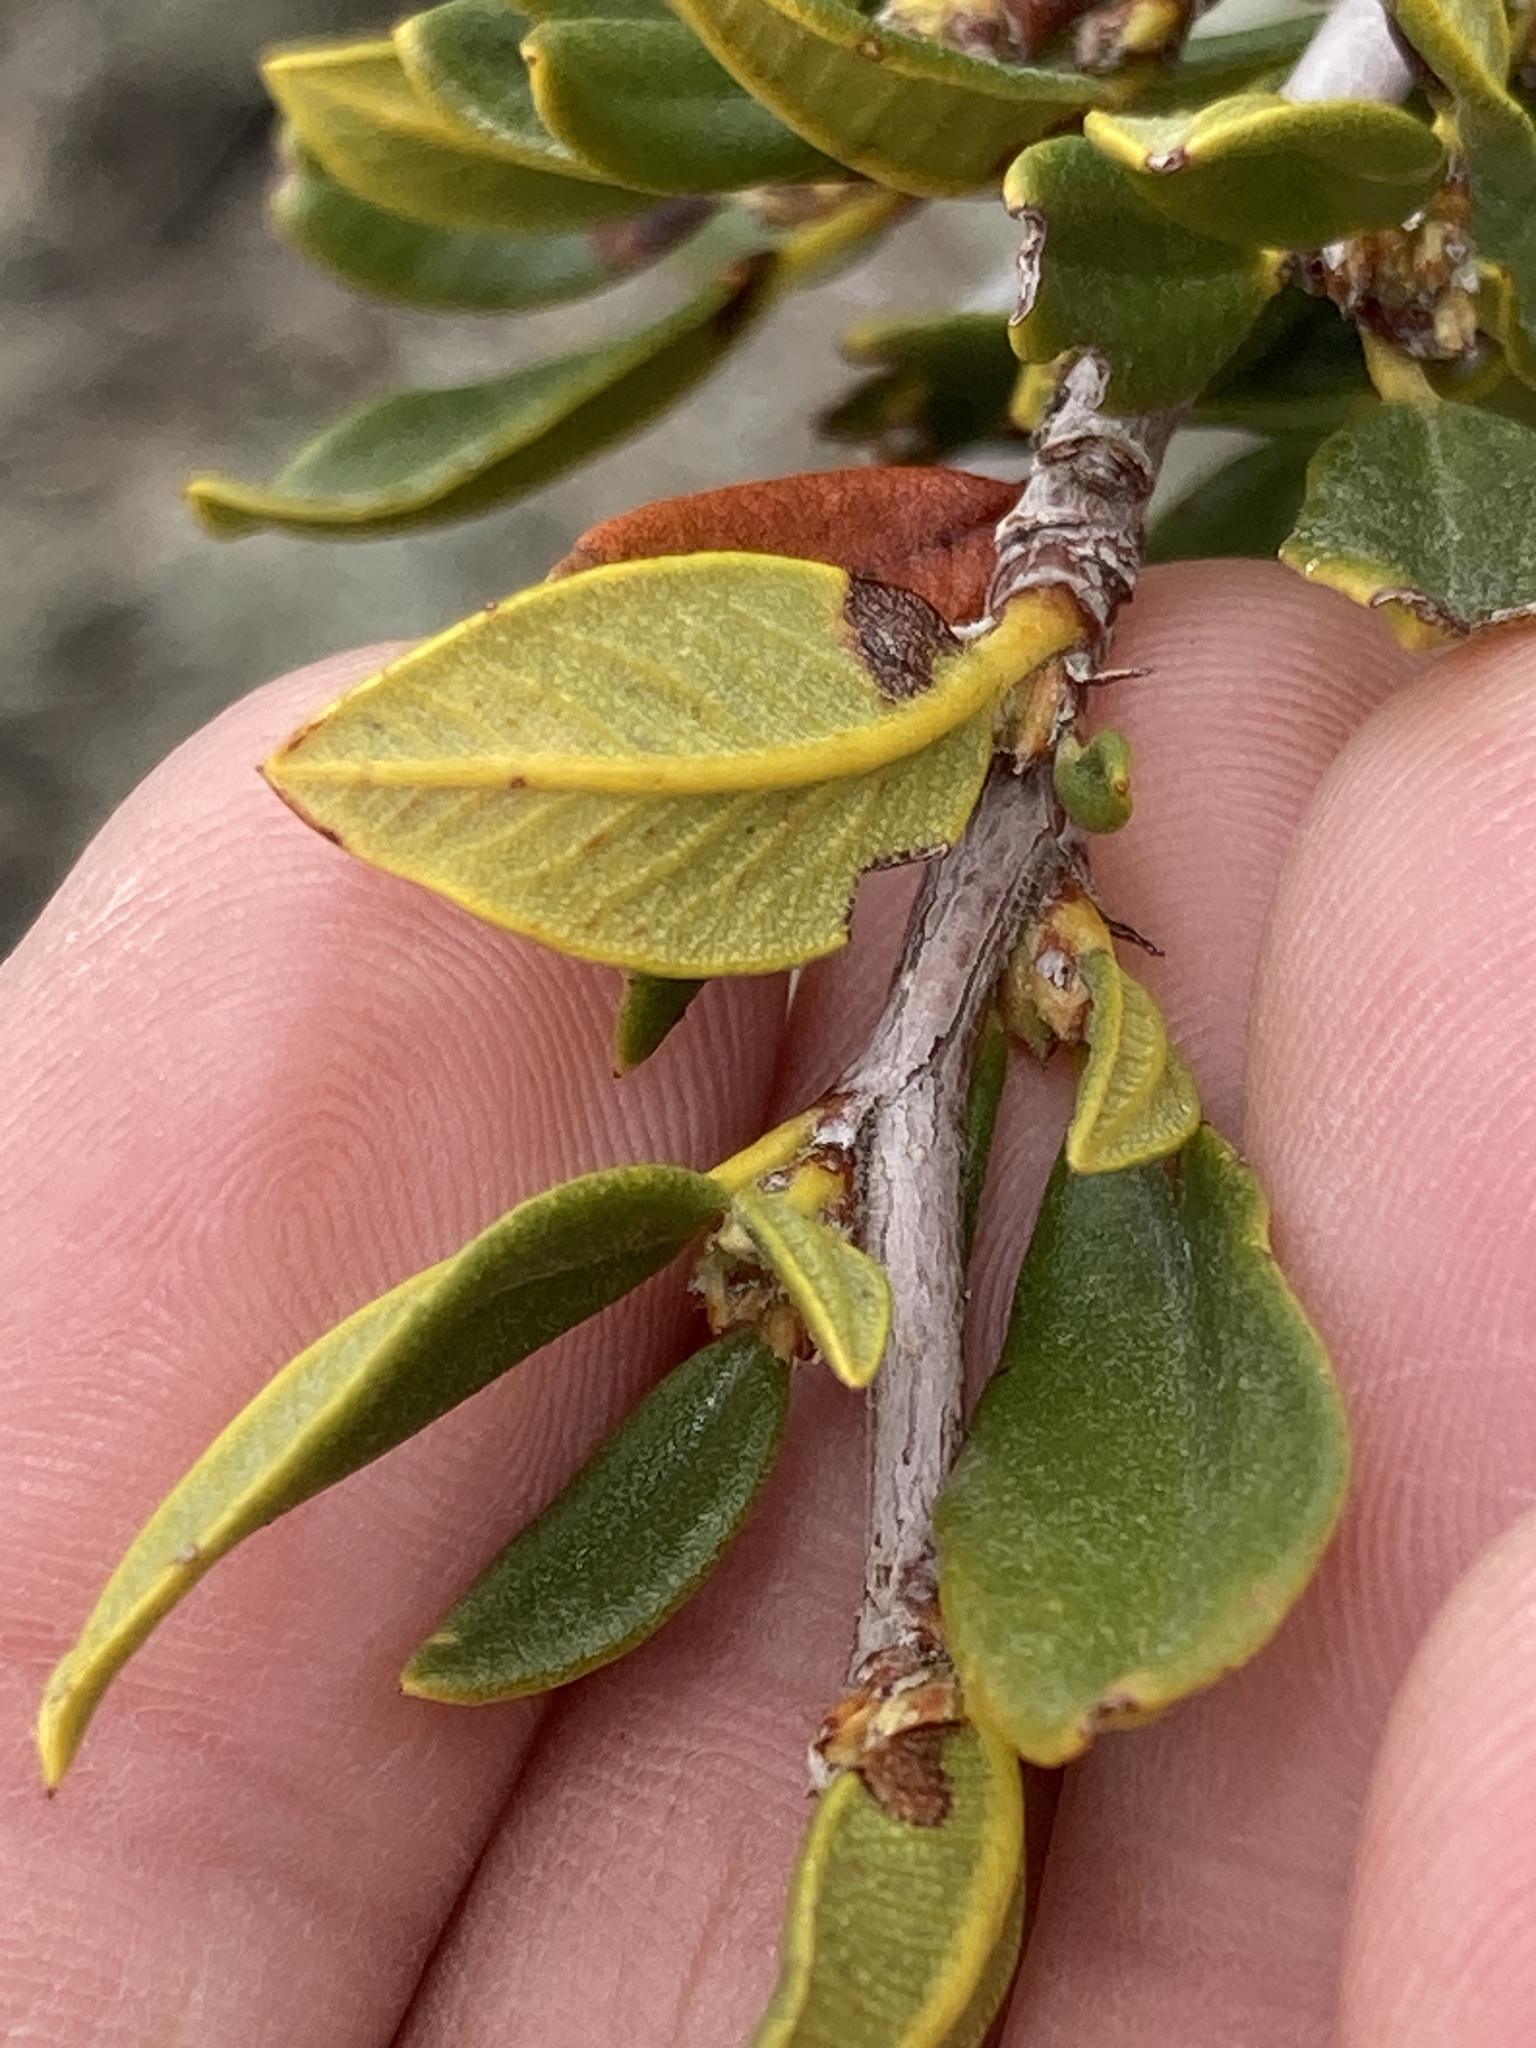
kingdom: Plantae
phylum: Tracheophyta
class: Magnoliopsida
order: Rosales
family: Rosaceae
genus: Cercocarpus
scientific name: Cercocarpus ledifolius
